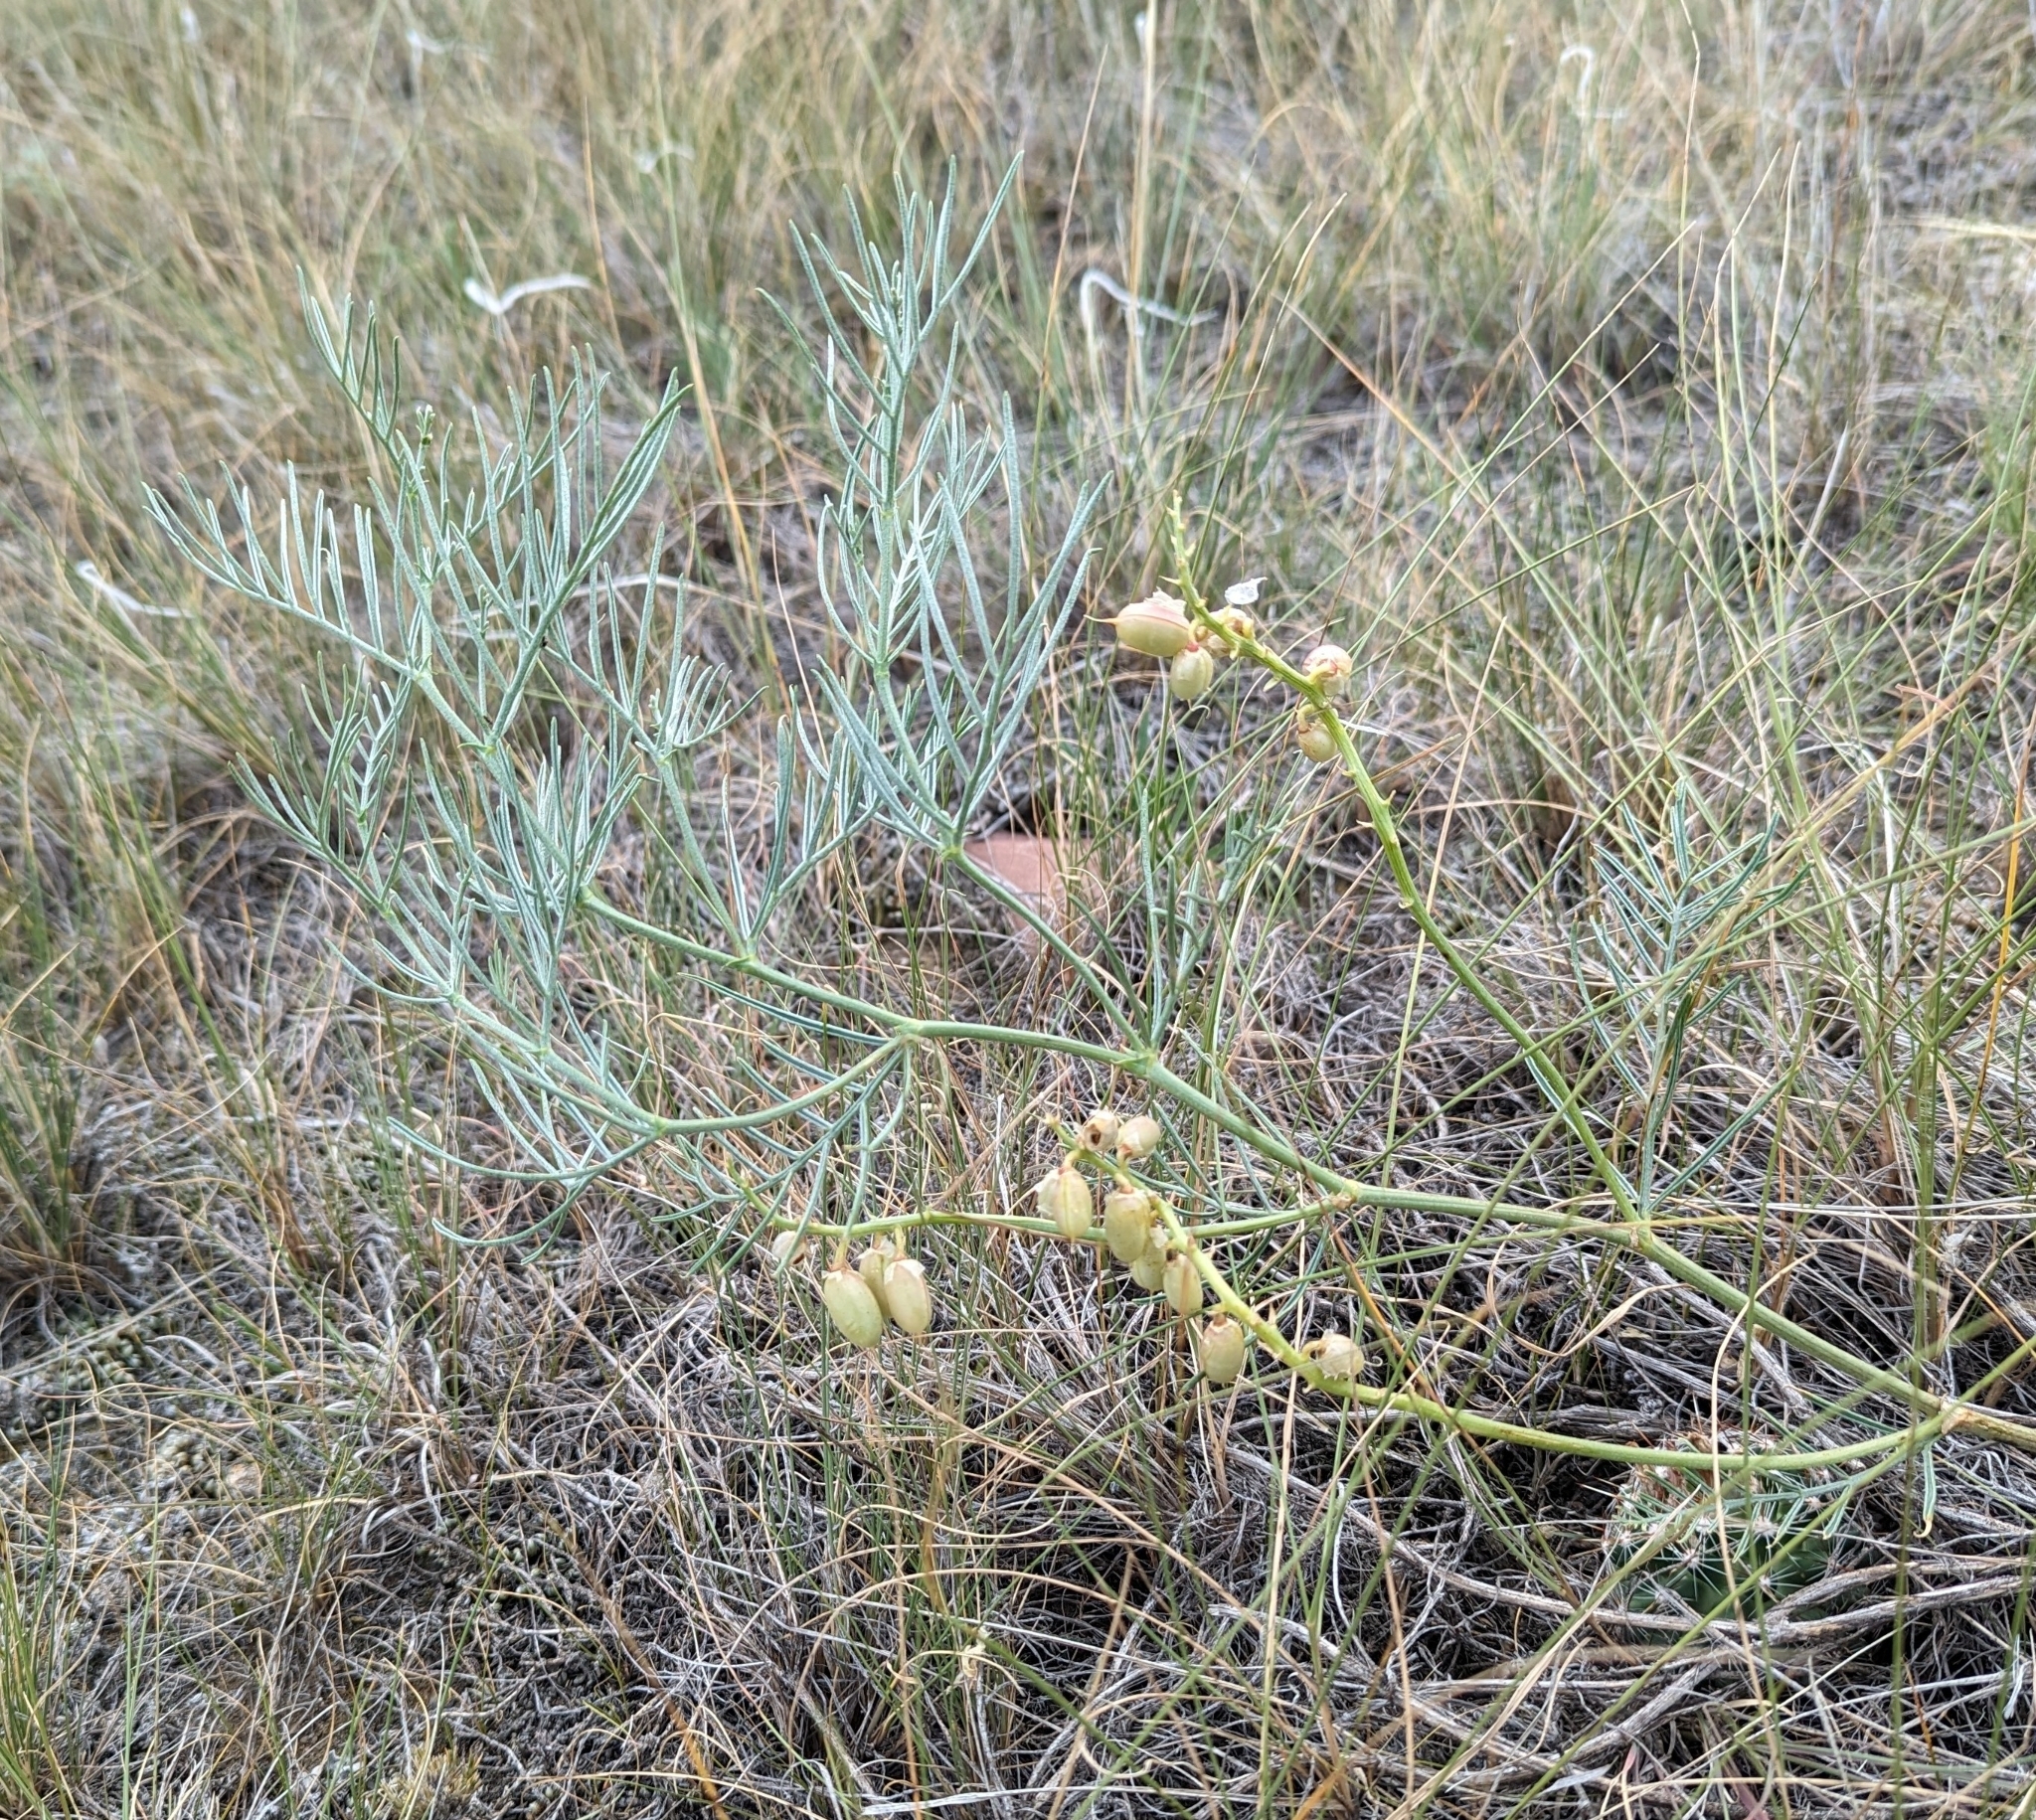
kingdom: Plantae
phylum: Tracheophyta
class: Magnoliopsida
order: Fabales
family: Fabaceae
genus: Astragalus
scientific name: Astragalus pectinatus
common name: Tine-leaf milk-vetch
